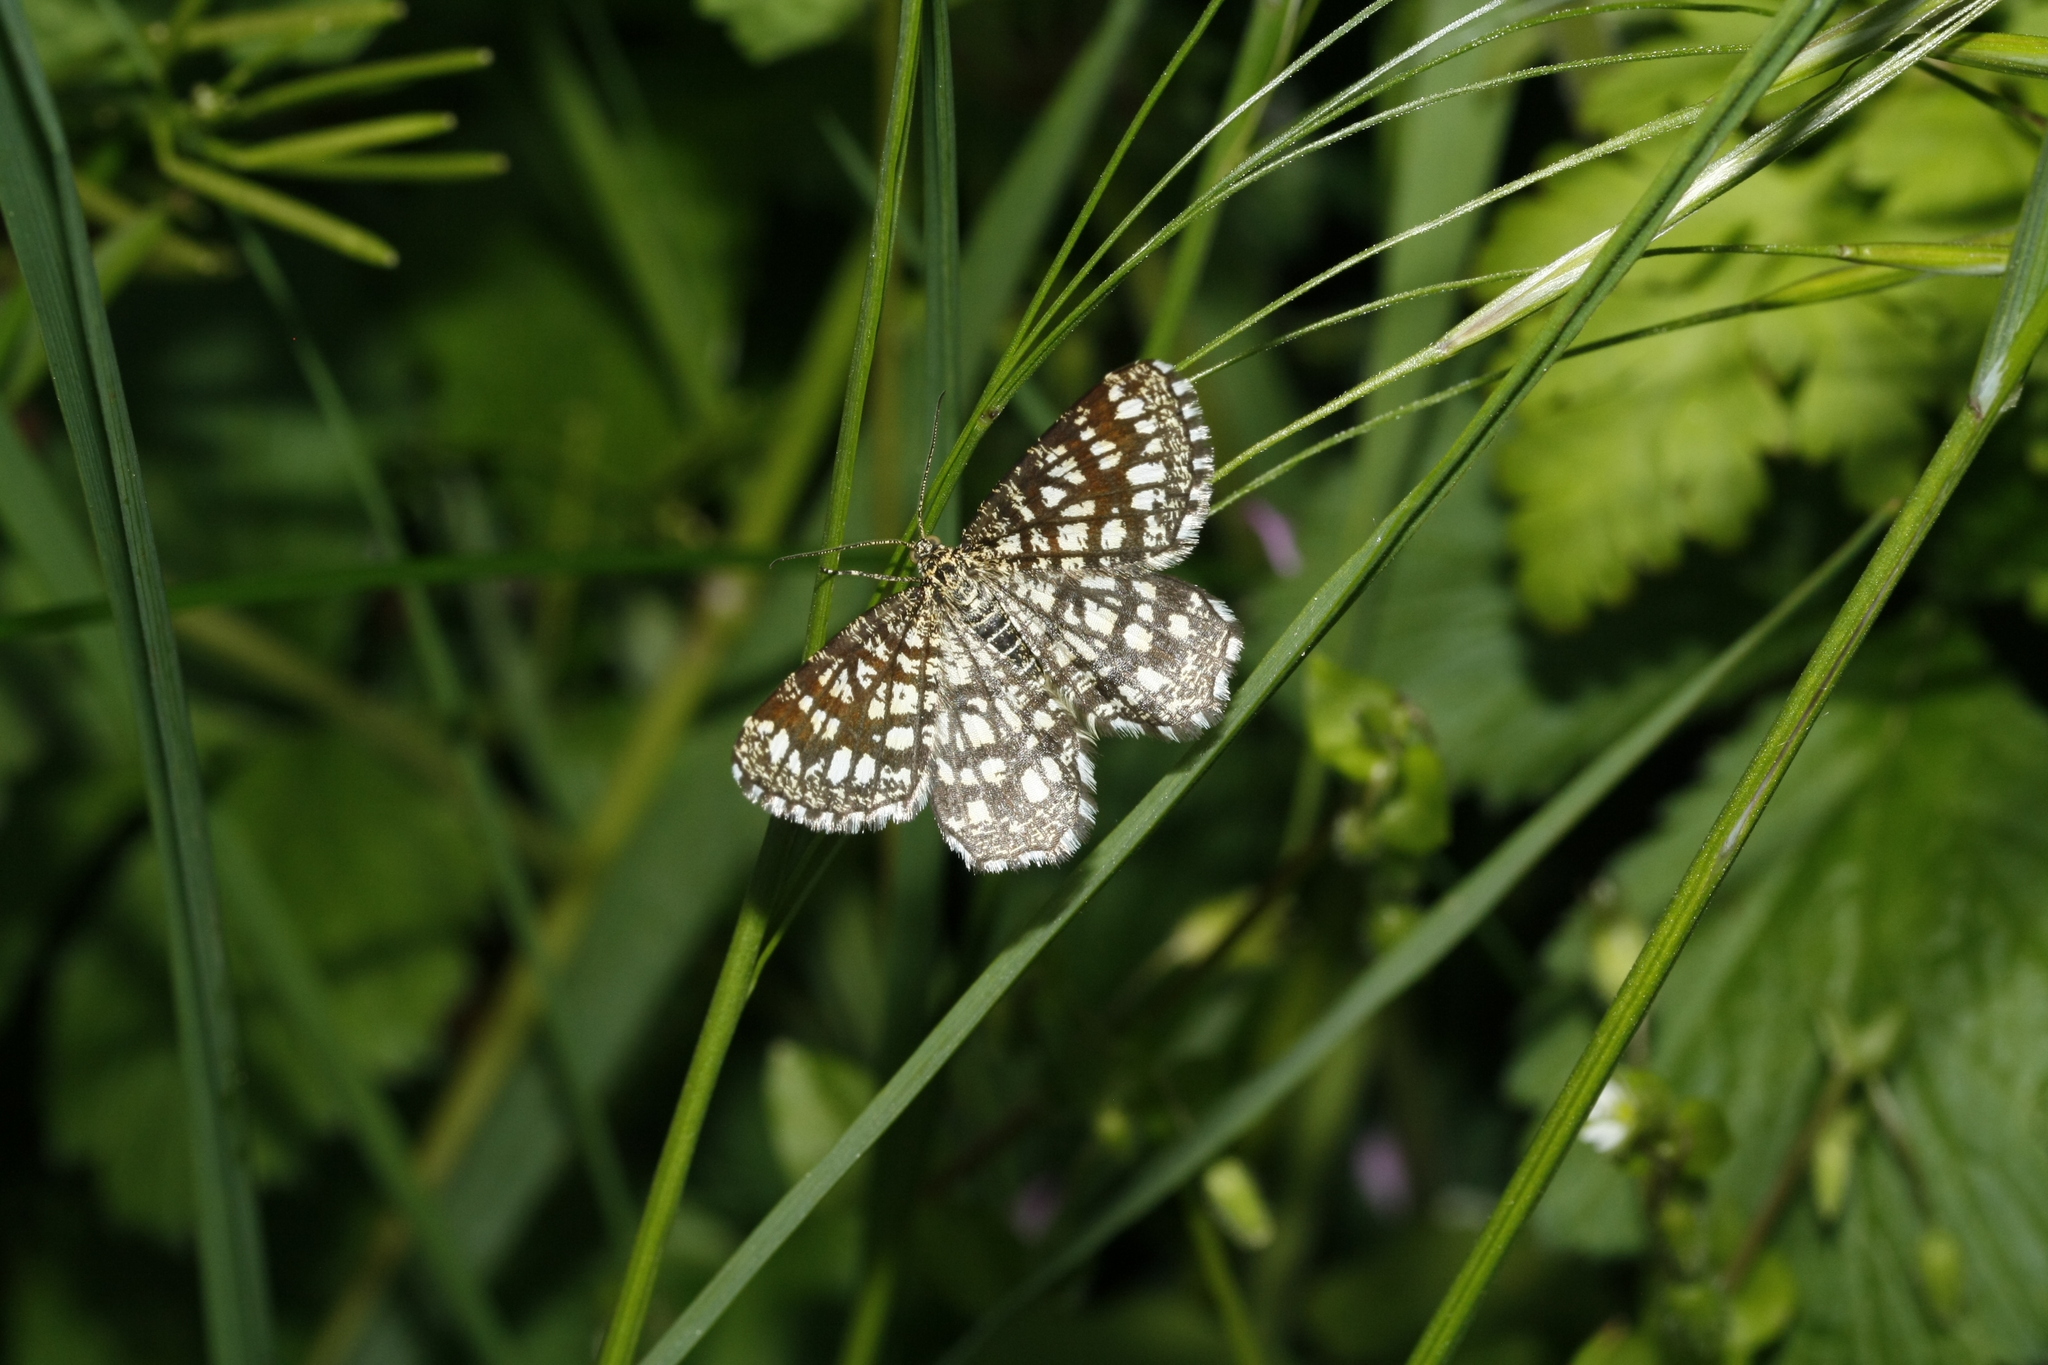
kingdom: Animalia
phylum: Arthropoda
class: Insecta
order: Lepidoptera
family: Geometridae
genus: Chiasmia
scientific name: Chiasmia clathrata
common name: Latticed heath
